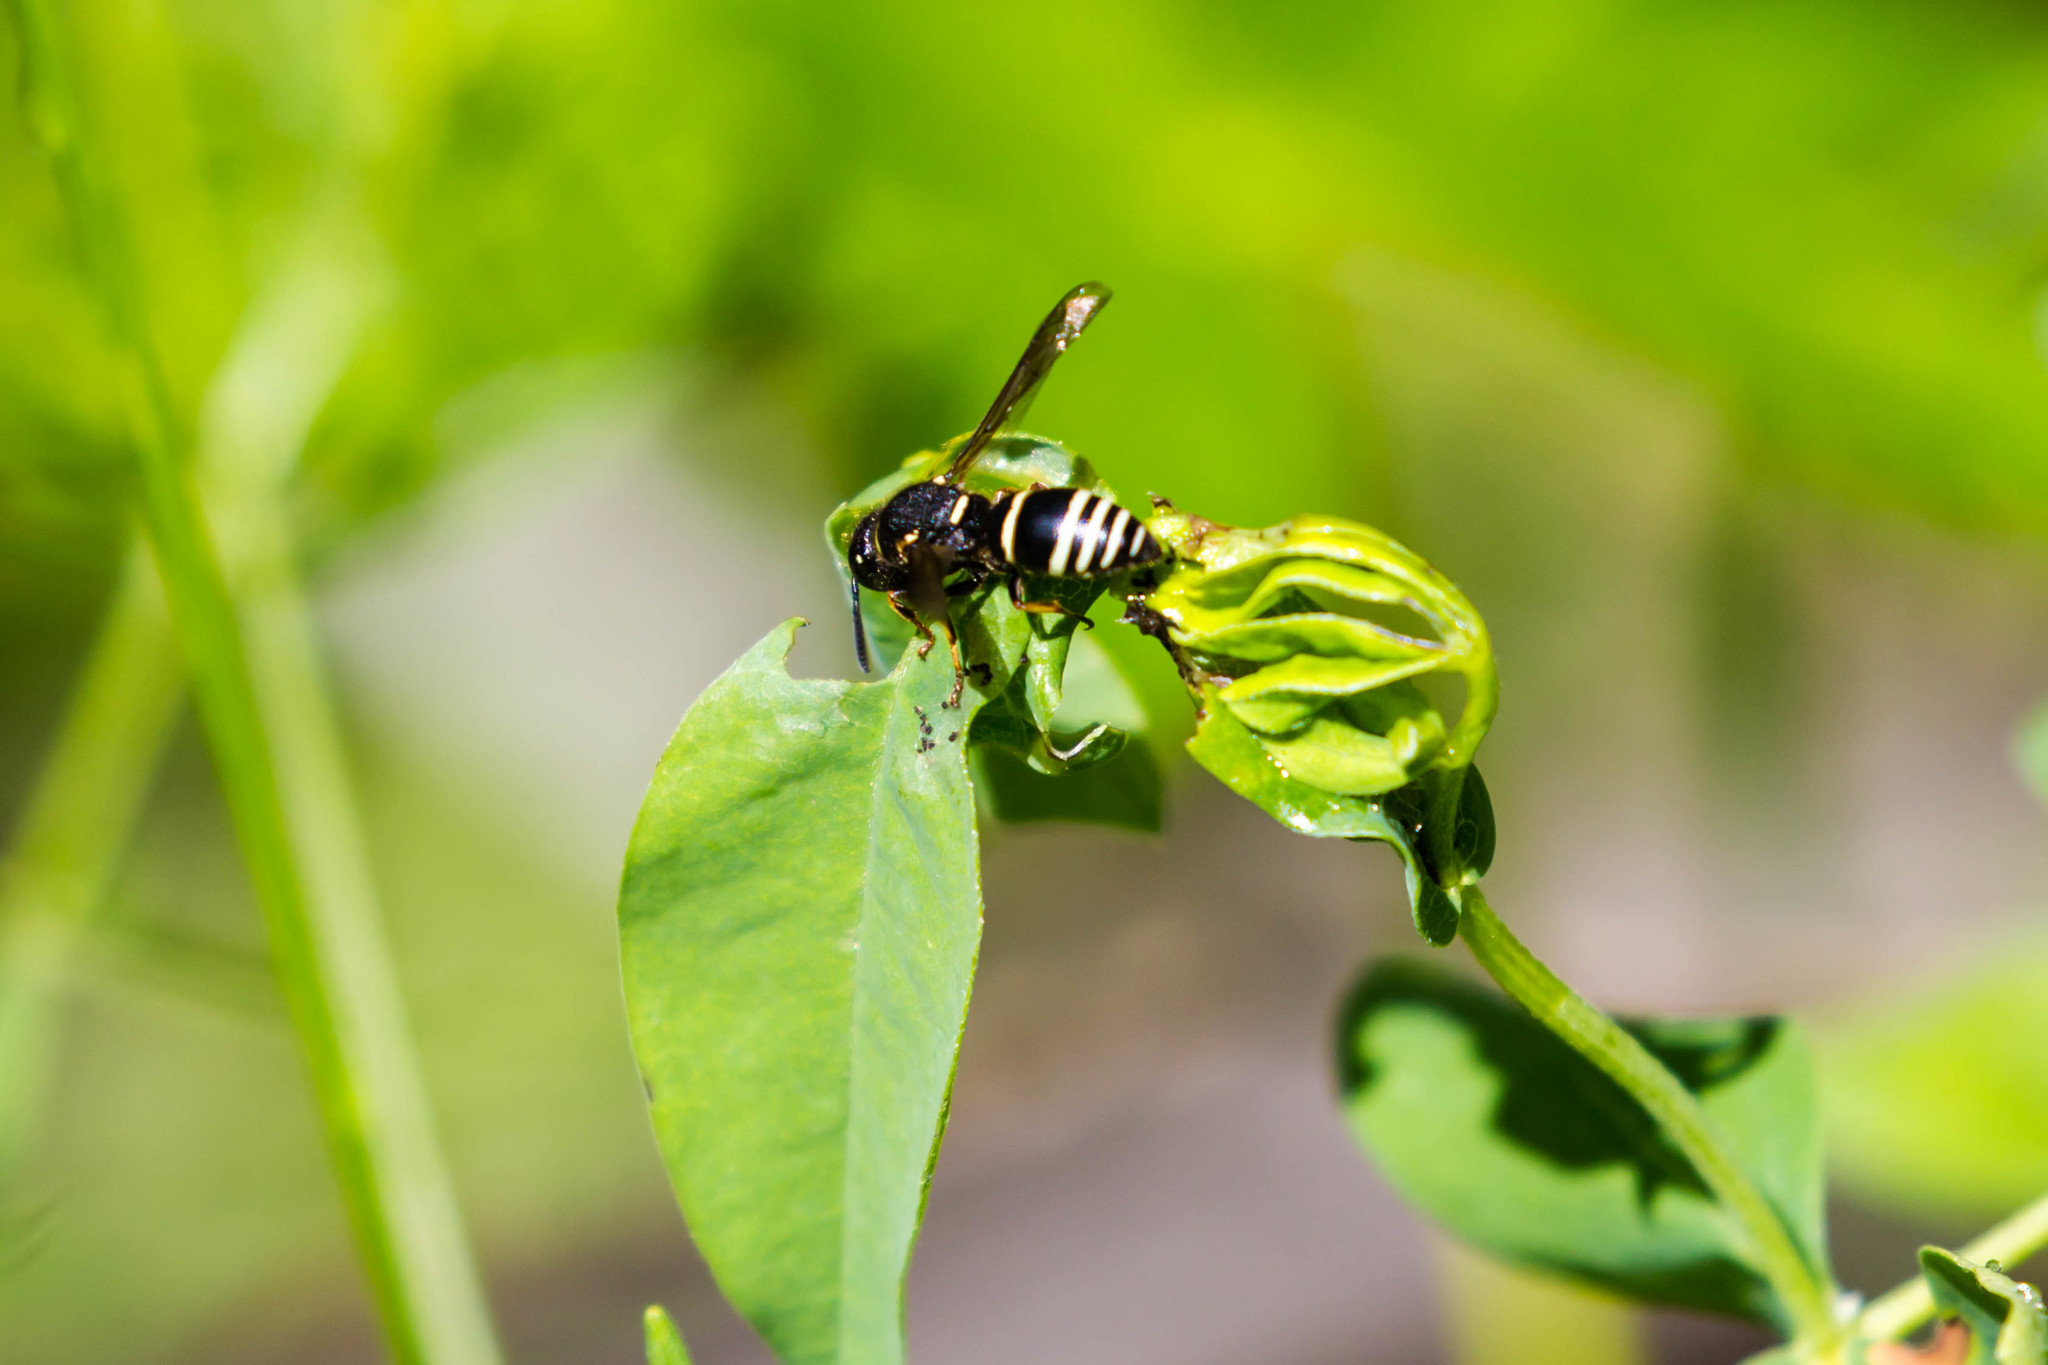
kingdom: Animalia
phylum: Arthropoda
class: Insecta
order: Hymenoptera
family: Eumenidae
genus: Euodynerus
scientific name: Euodynerus
